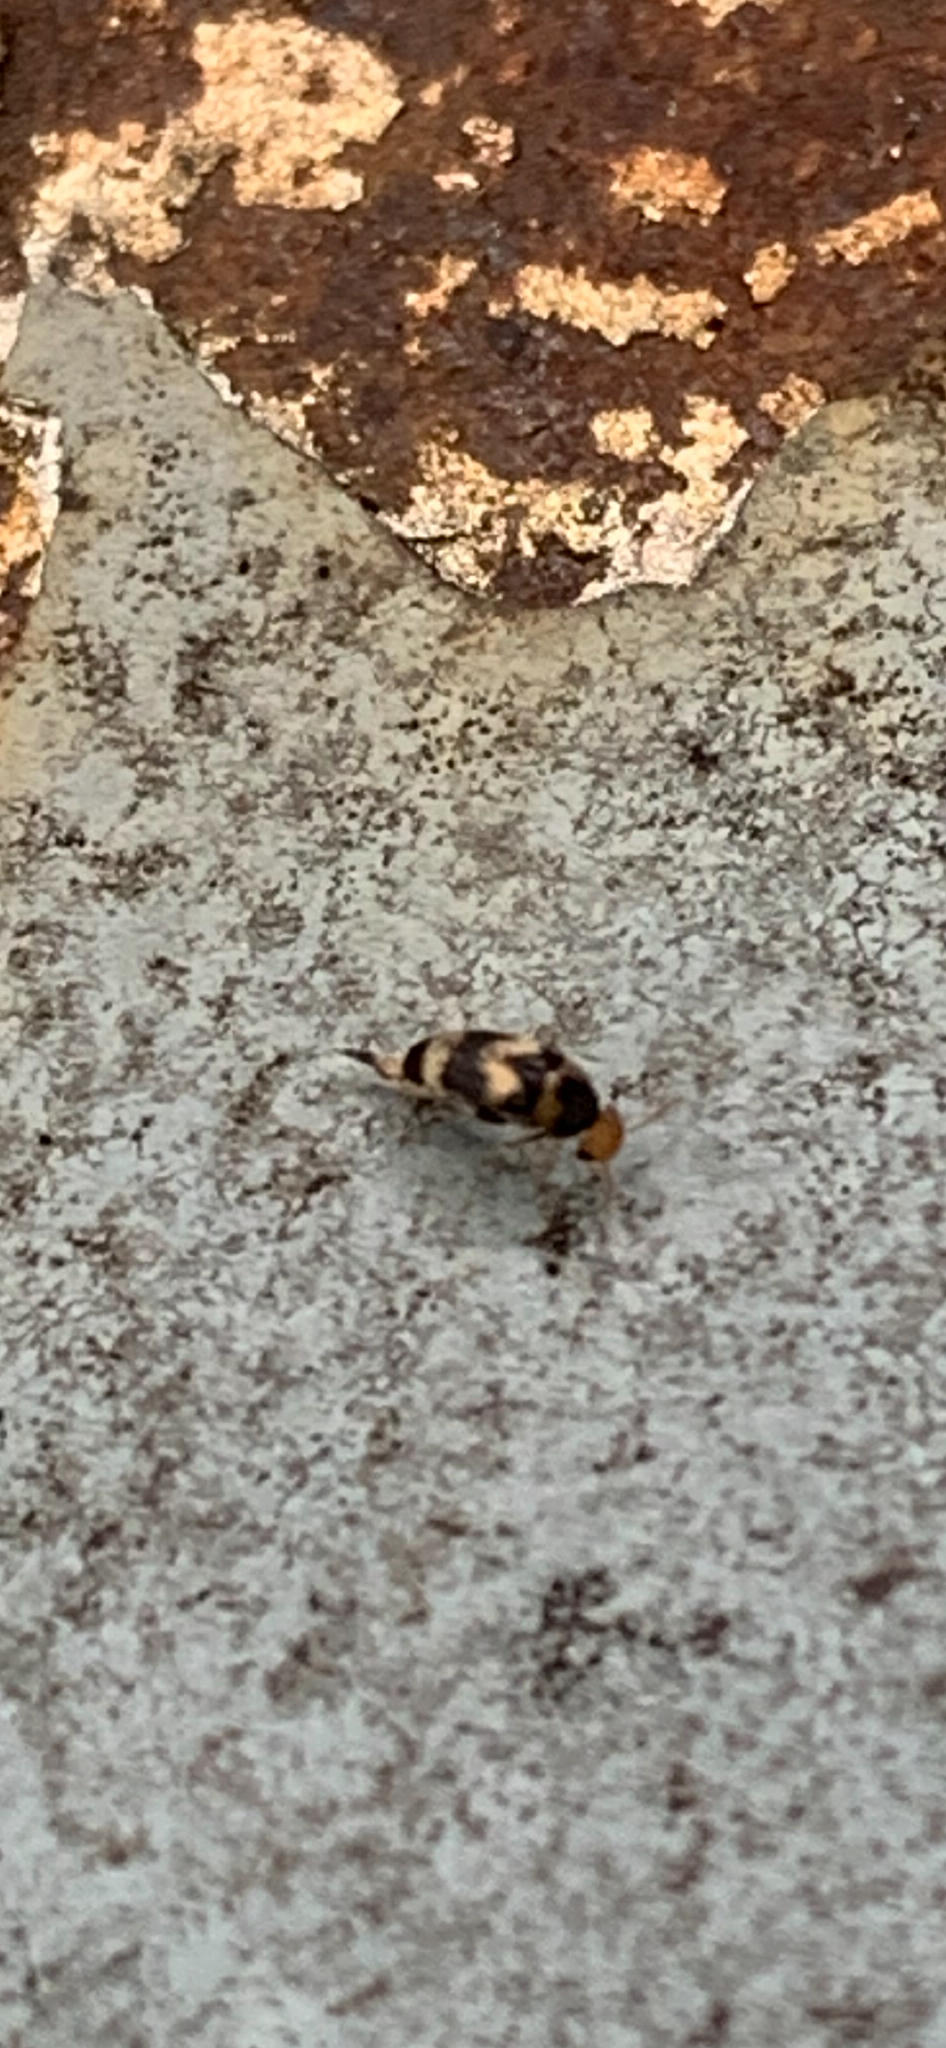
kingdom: Animalia
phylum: Arthropoda
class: Insecta
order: Coleoptera
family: Mordellidae
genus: Mordellistena
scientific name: Mordellistena trifasciata
